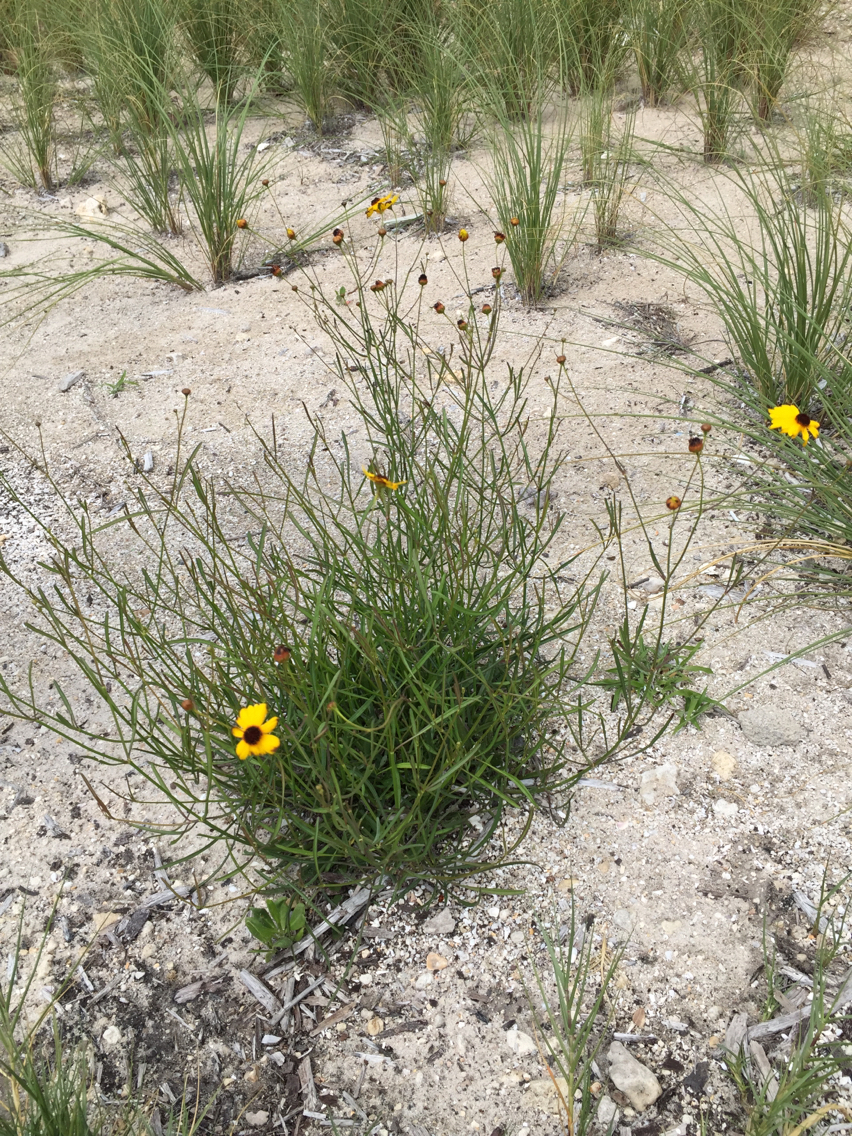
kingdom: Plantae
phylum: Tracheophyta
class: Magnoliopsida
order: Asterales
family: Asteraceae
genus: Coreopsis
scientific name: Coreopsis leavenworthii
